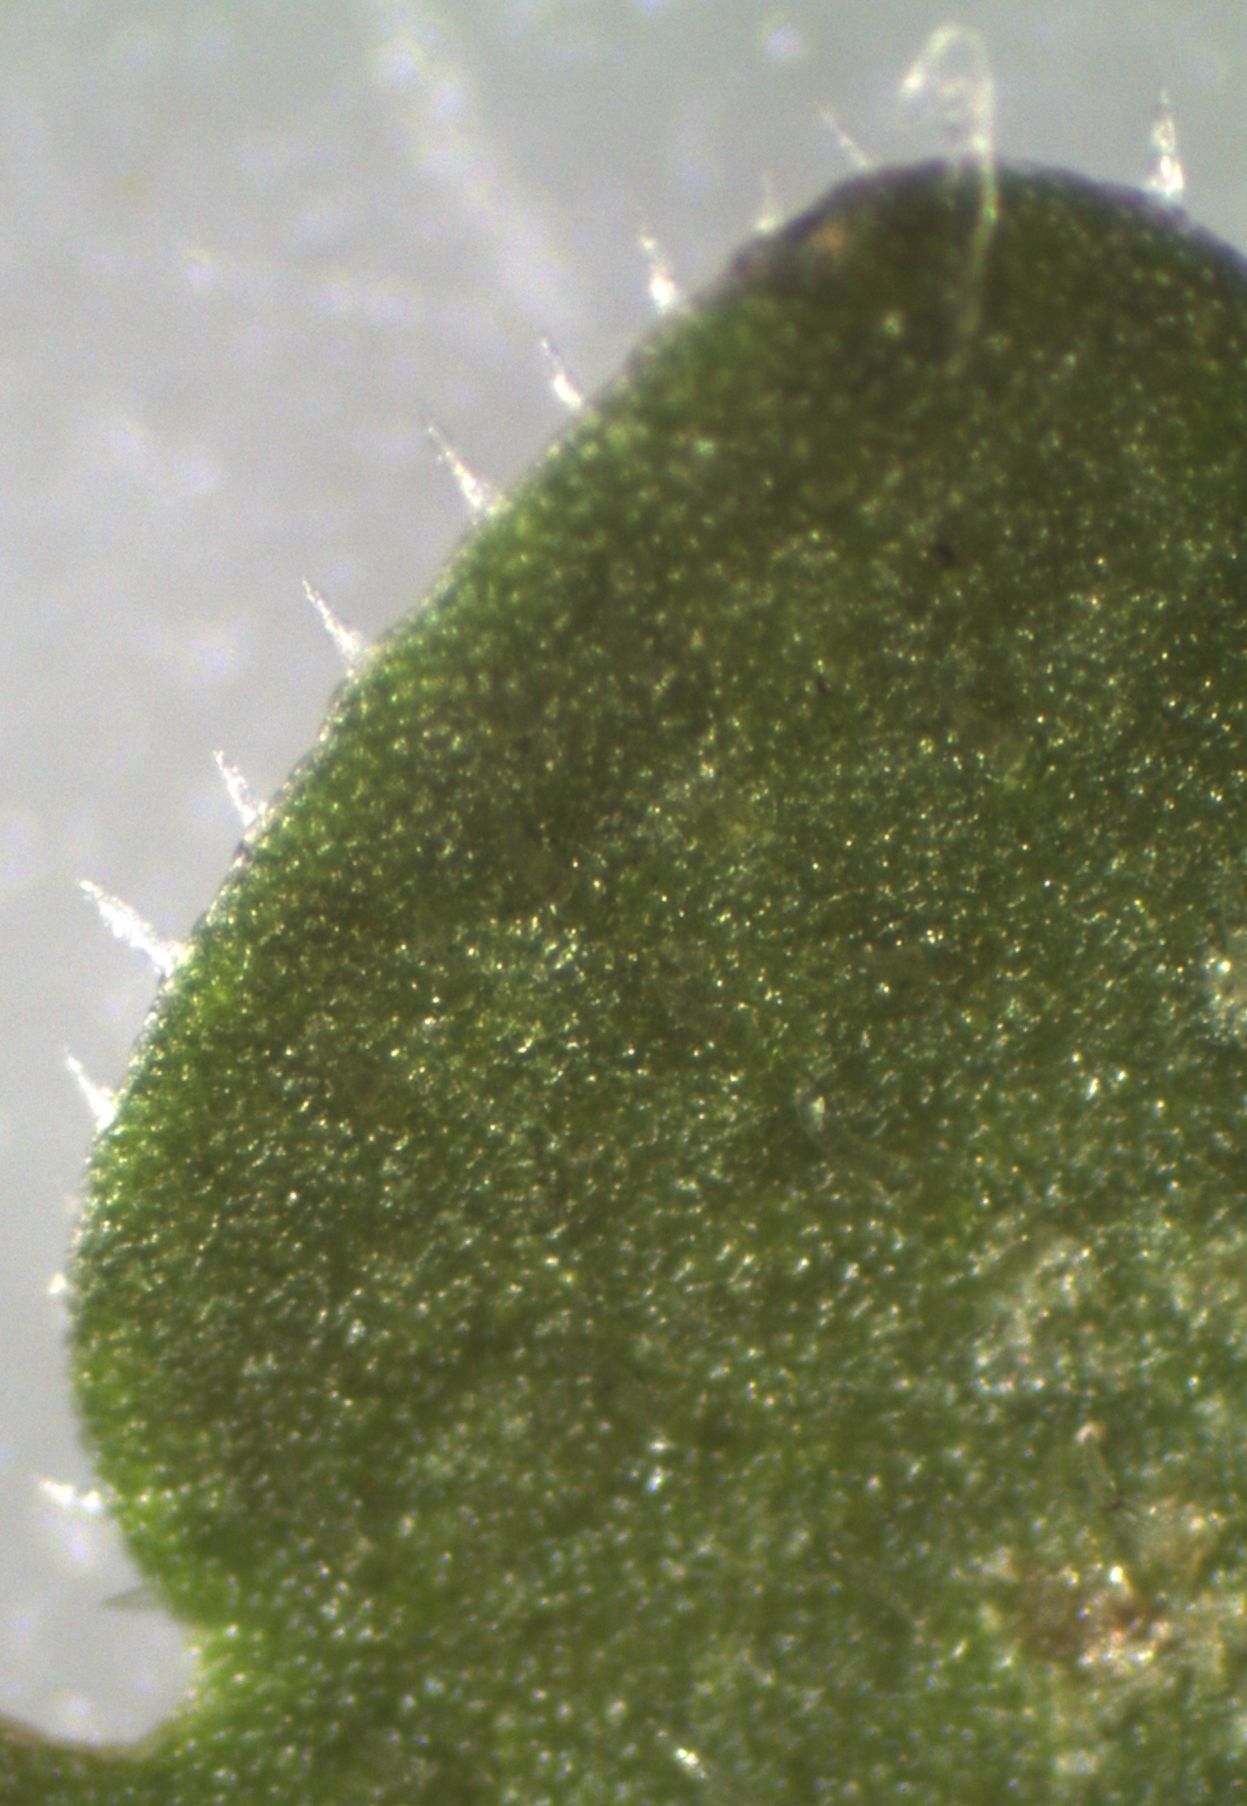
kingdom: Plantae
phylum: Tracheophyta
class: Magnoliopsida
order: Lamiales
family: Plantaginaceae
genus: Veronica
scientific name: Veronica persica
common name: Common field-speedwell
